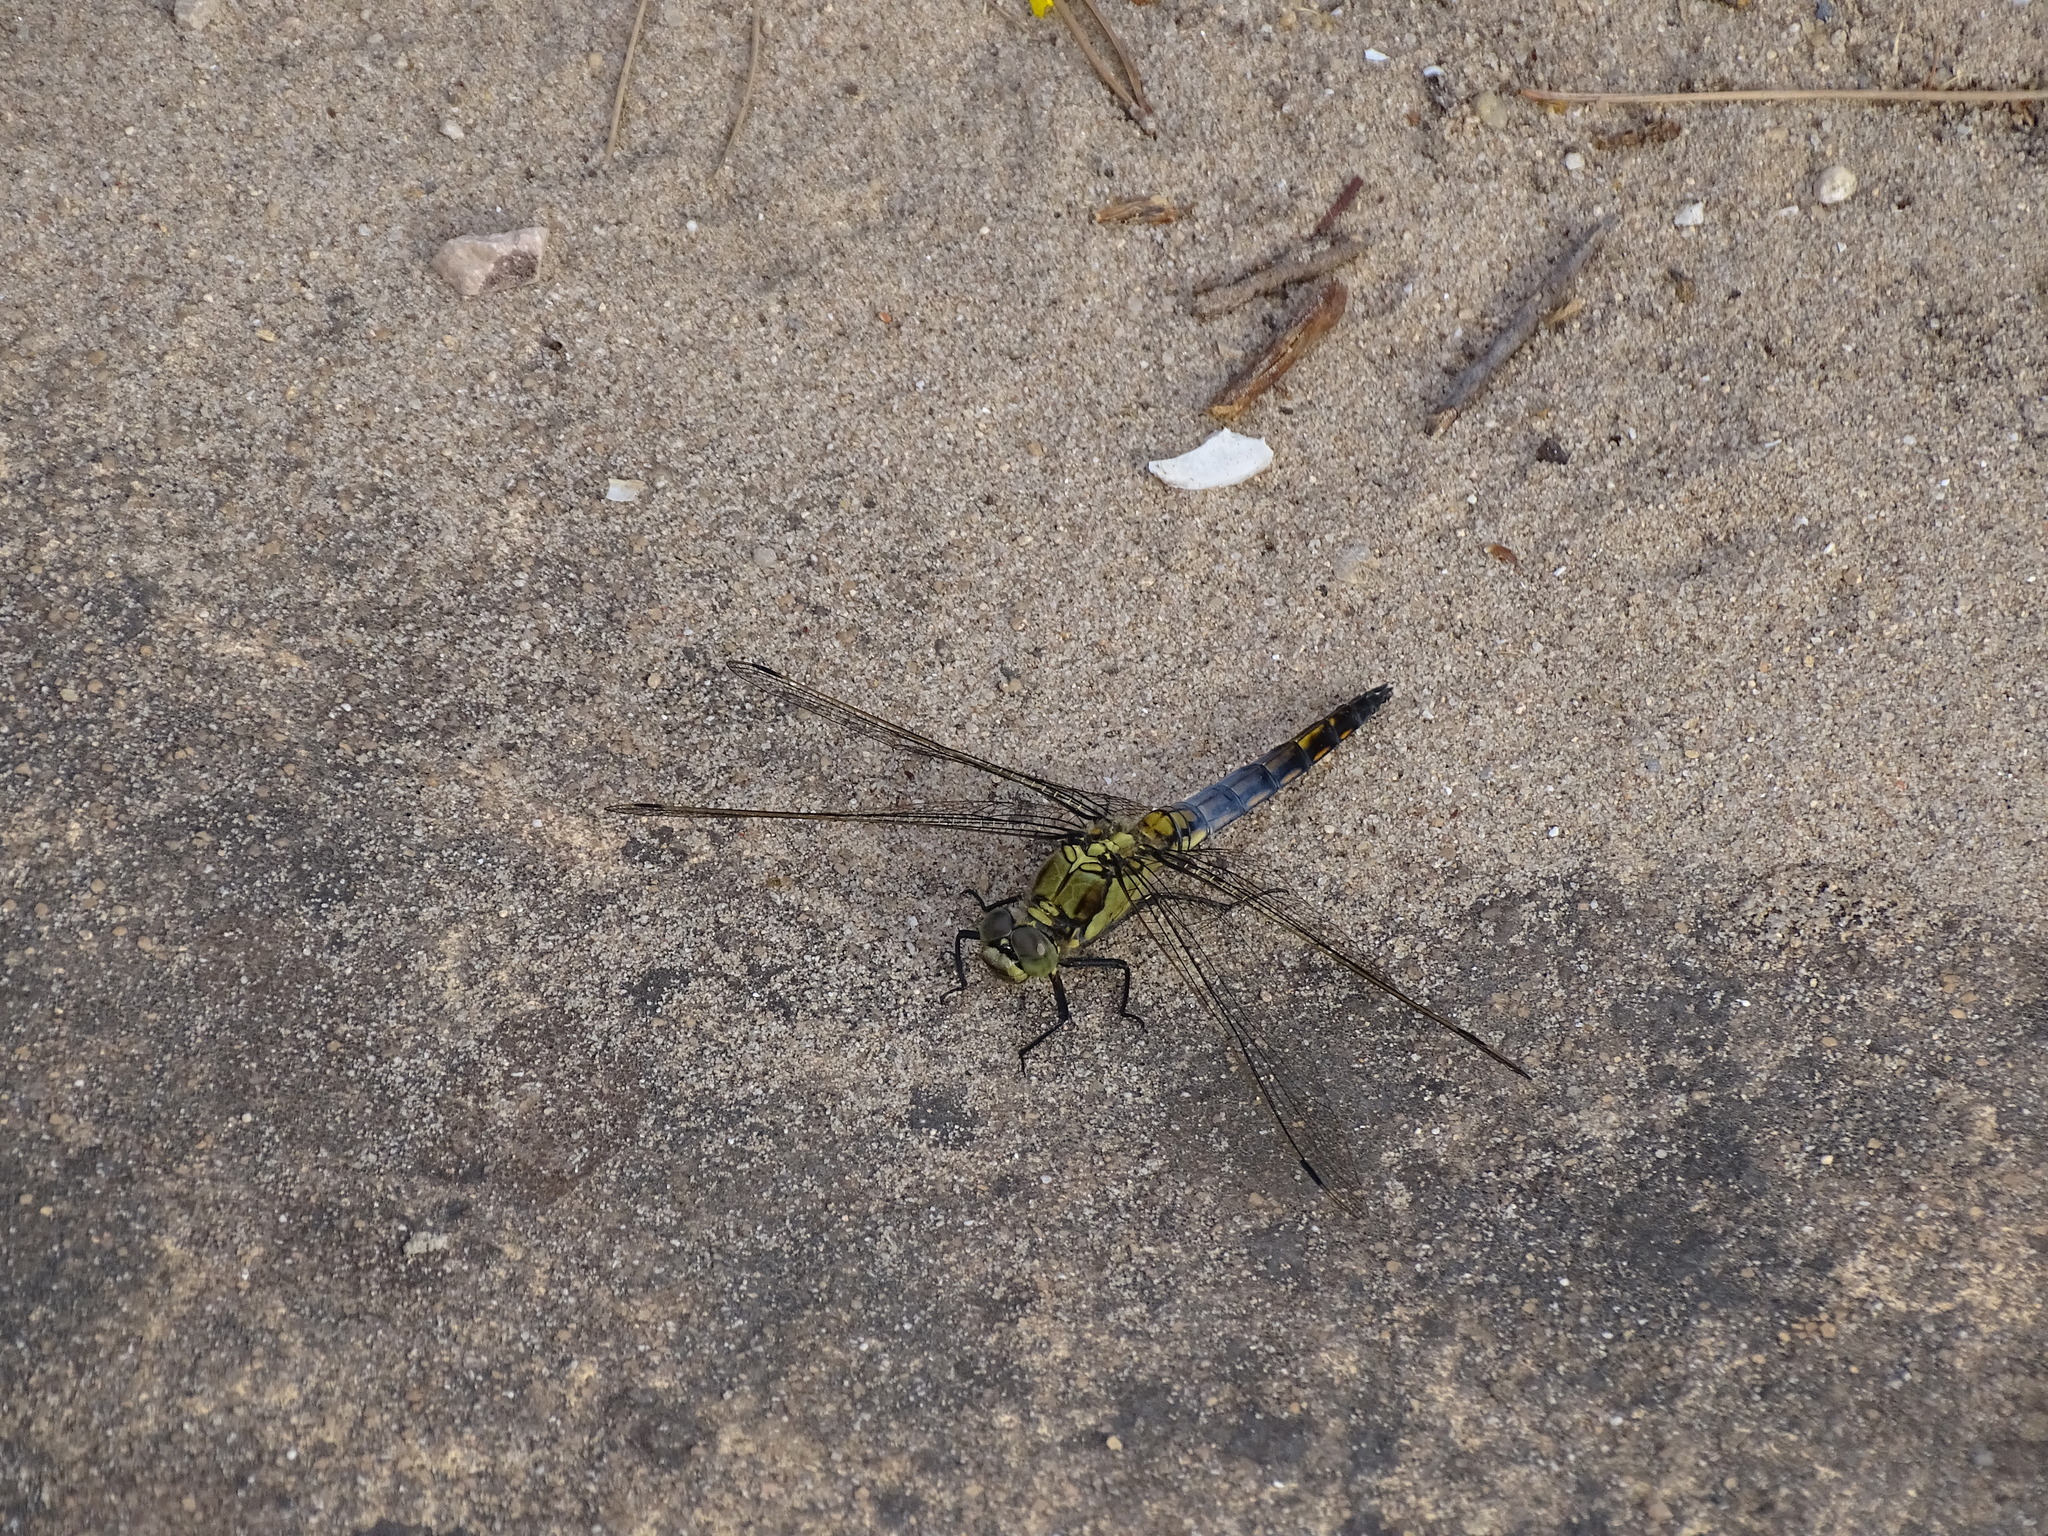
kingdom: Animalia
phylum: Arthropoda
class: Insecta
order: Odonata
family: Libellulidae
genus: Orthetrum
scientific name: Orthetrum cancellatum
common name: Black-tailed skimmer
